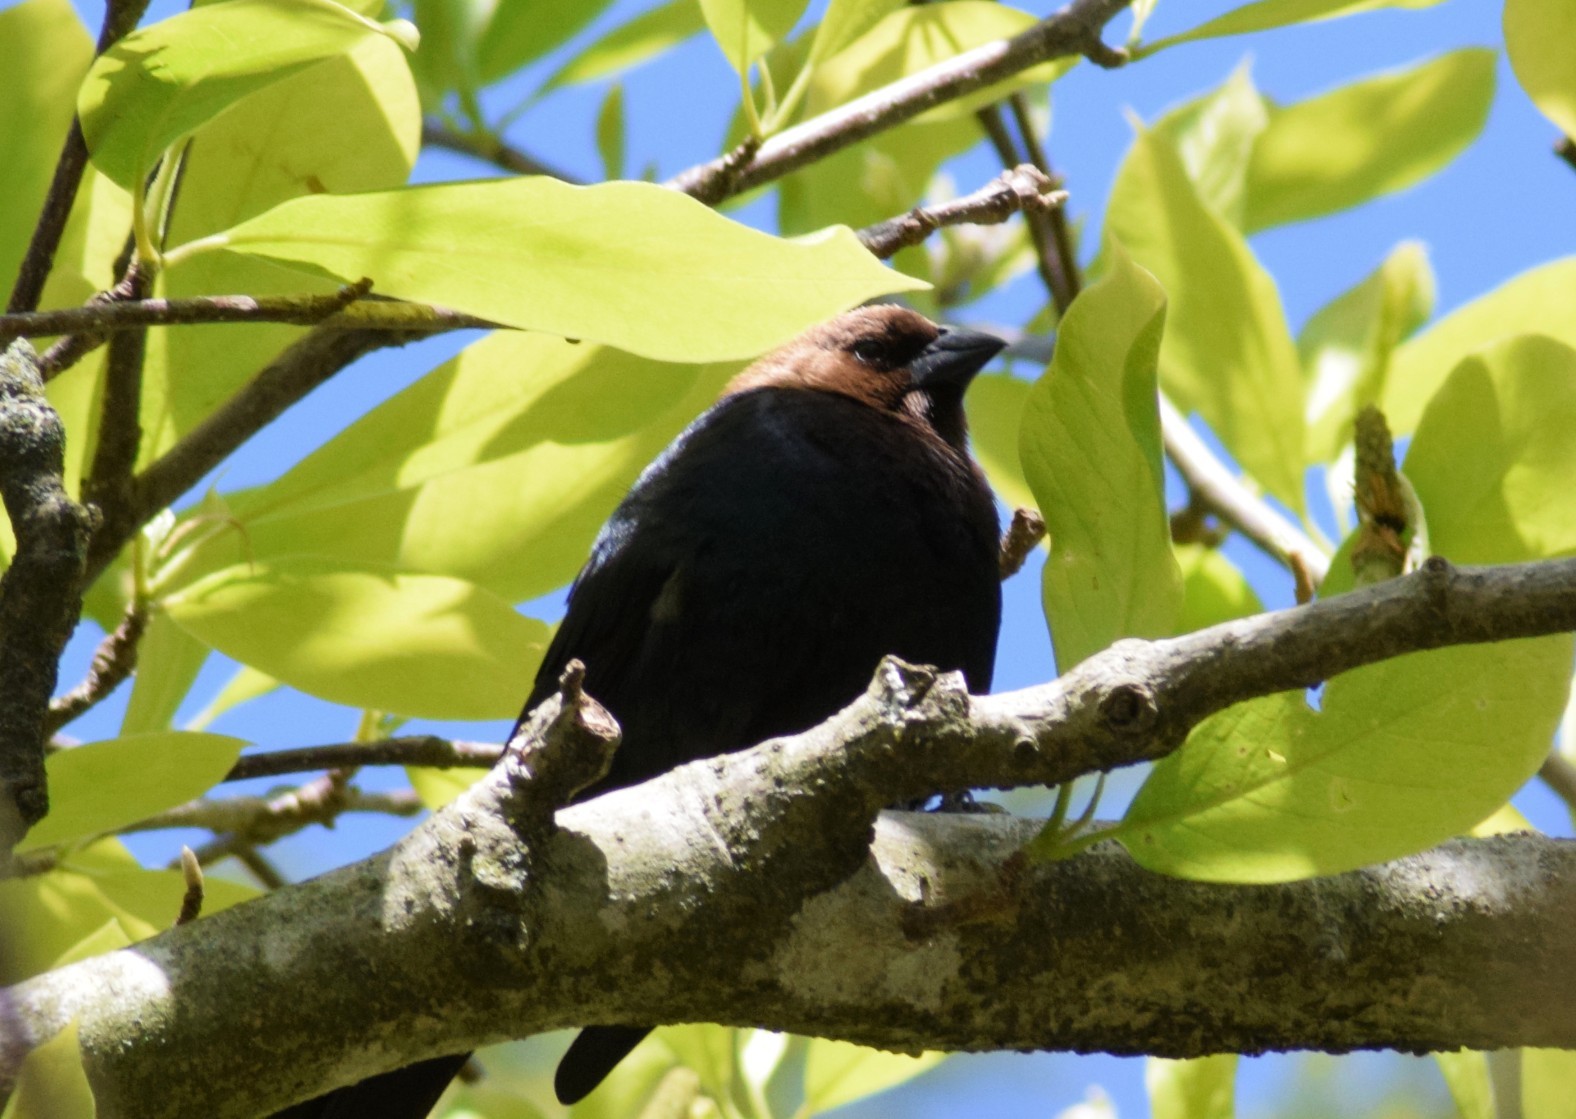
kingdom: Animalia
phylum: Chordata
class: Aves
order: Passeriformes
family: Icteridae
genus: Molothrus
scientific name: Molothrus ater
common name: Brown-headed cowbird
